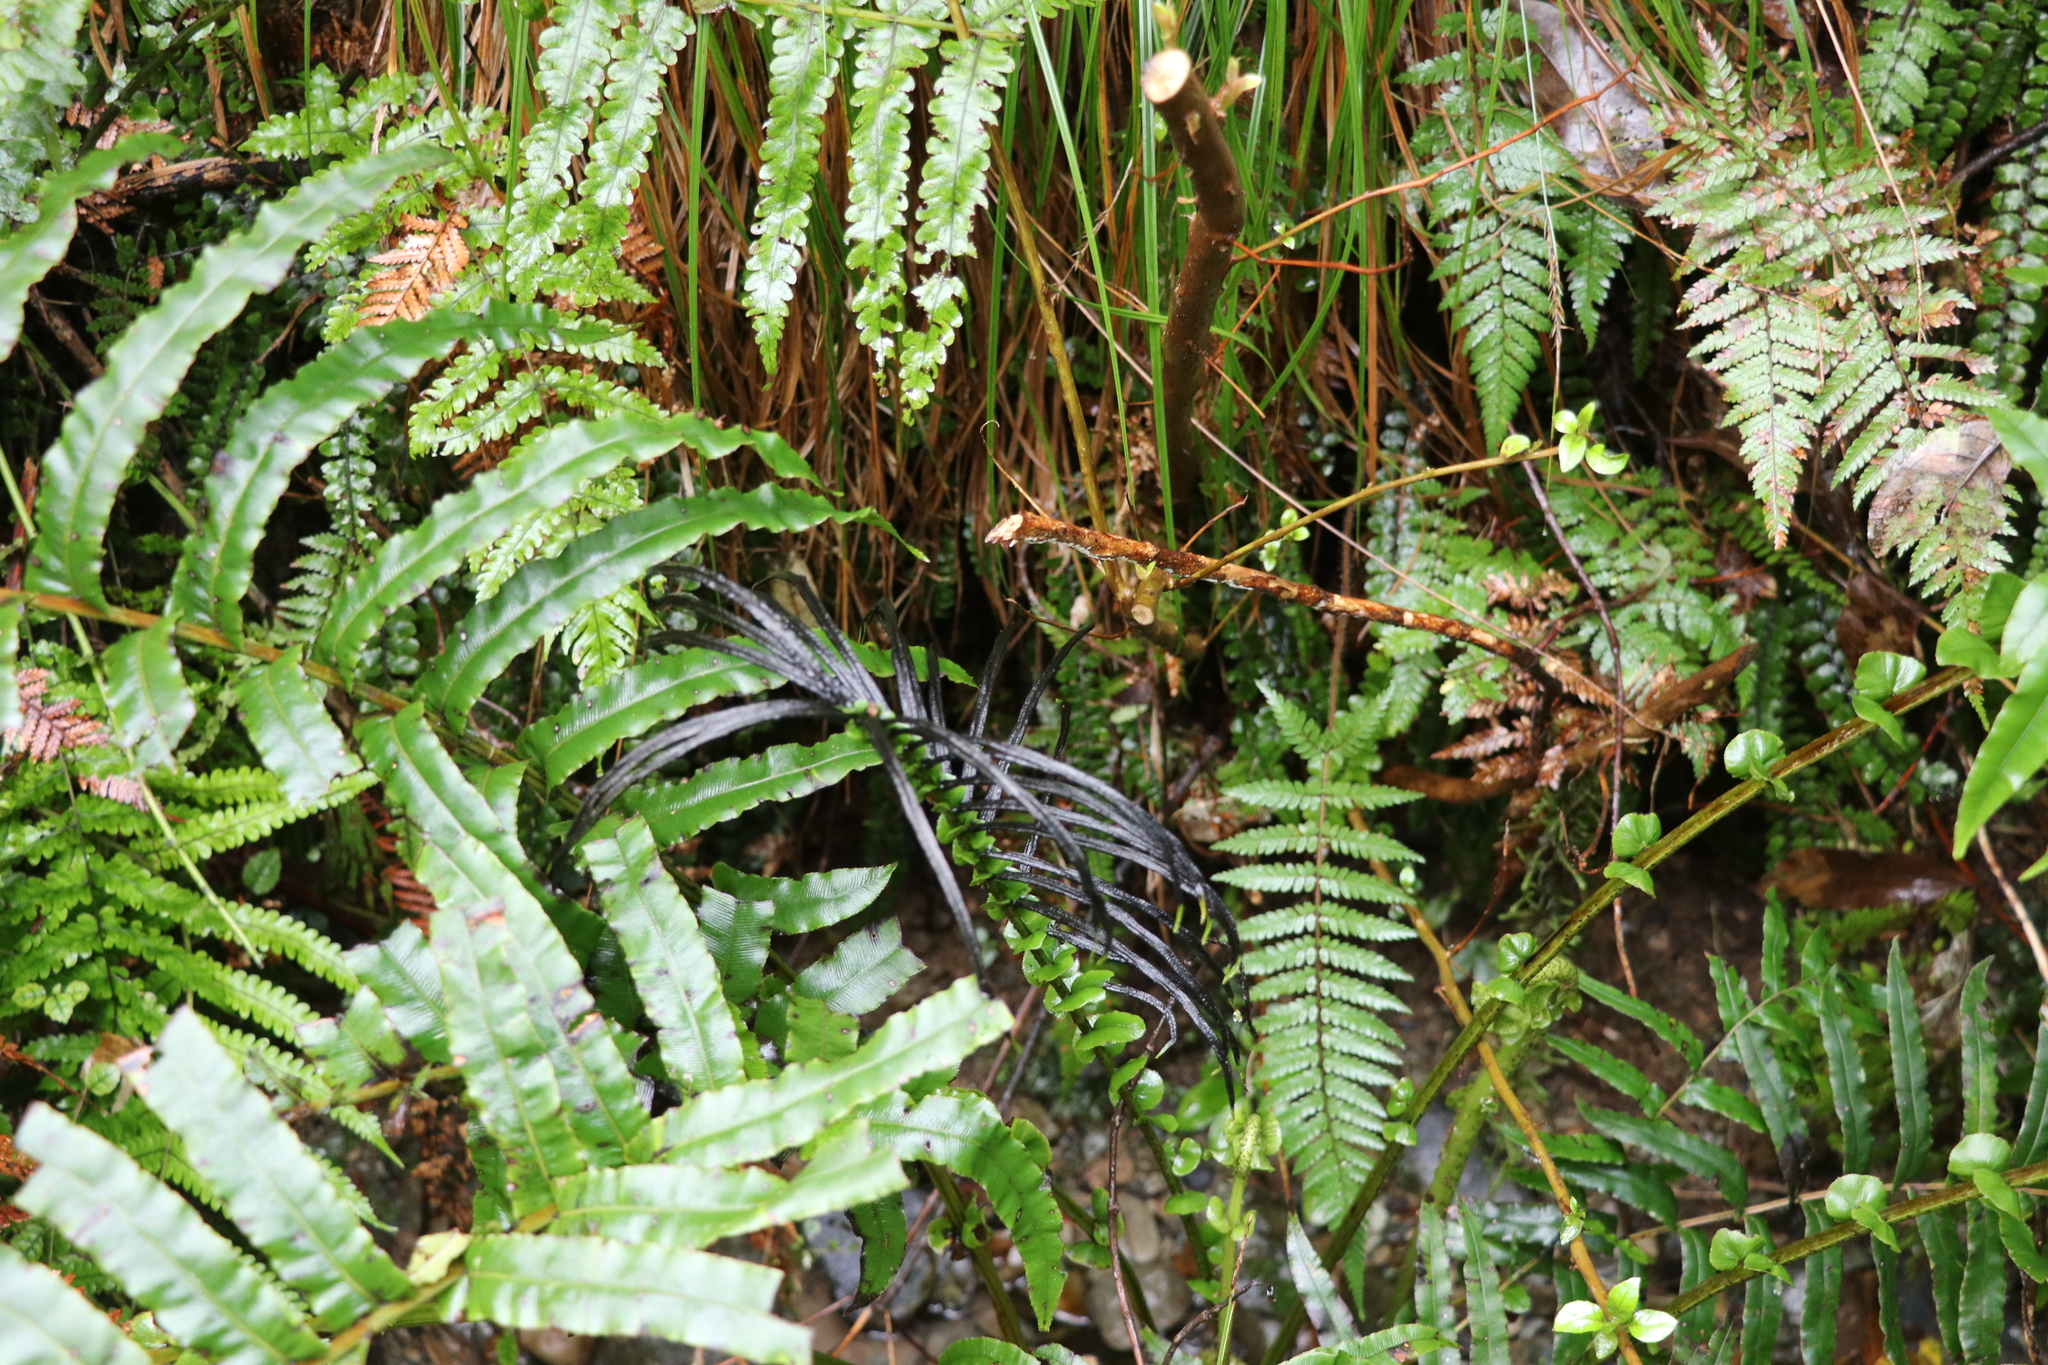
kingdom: Plantae
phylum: Tracheophyta
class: Polypodiopsida
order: Polypodiales
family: Blechnaceae
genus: Parablechnum
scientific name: Parablechnum novae-zelandiae
